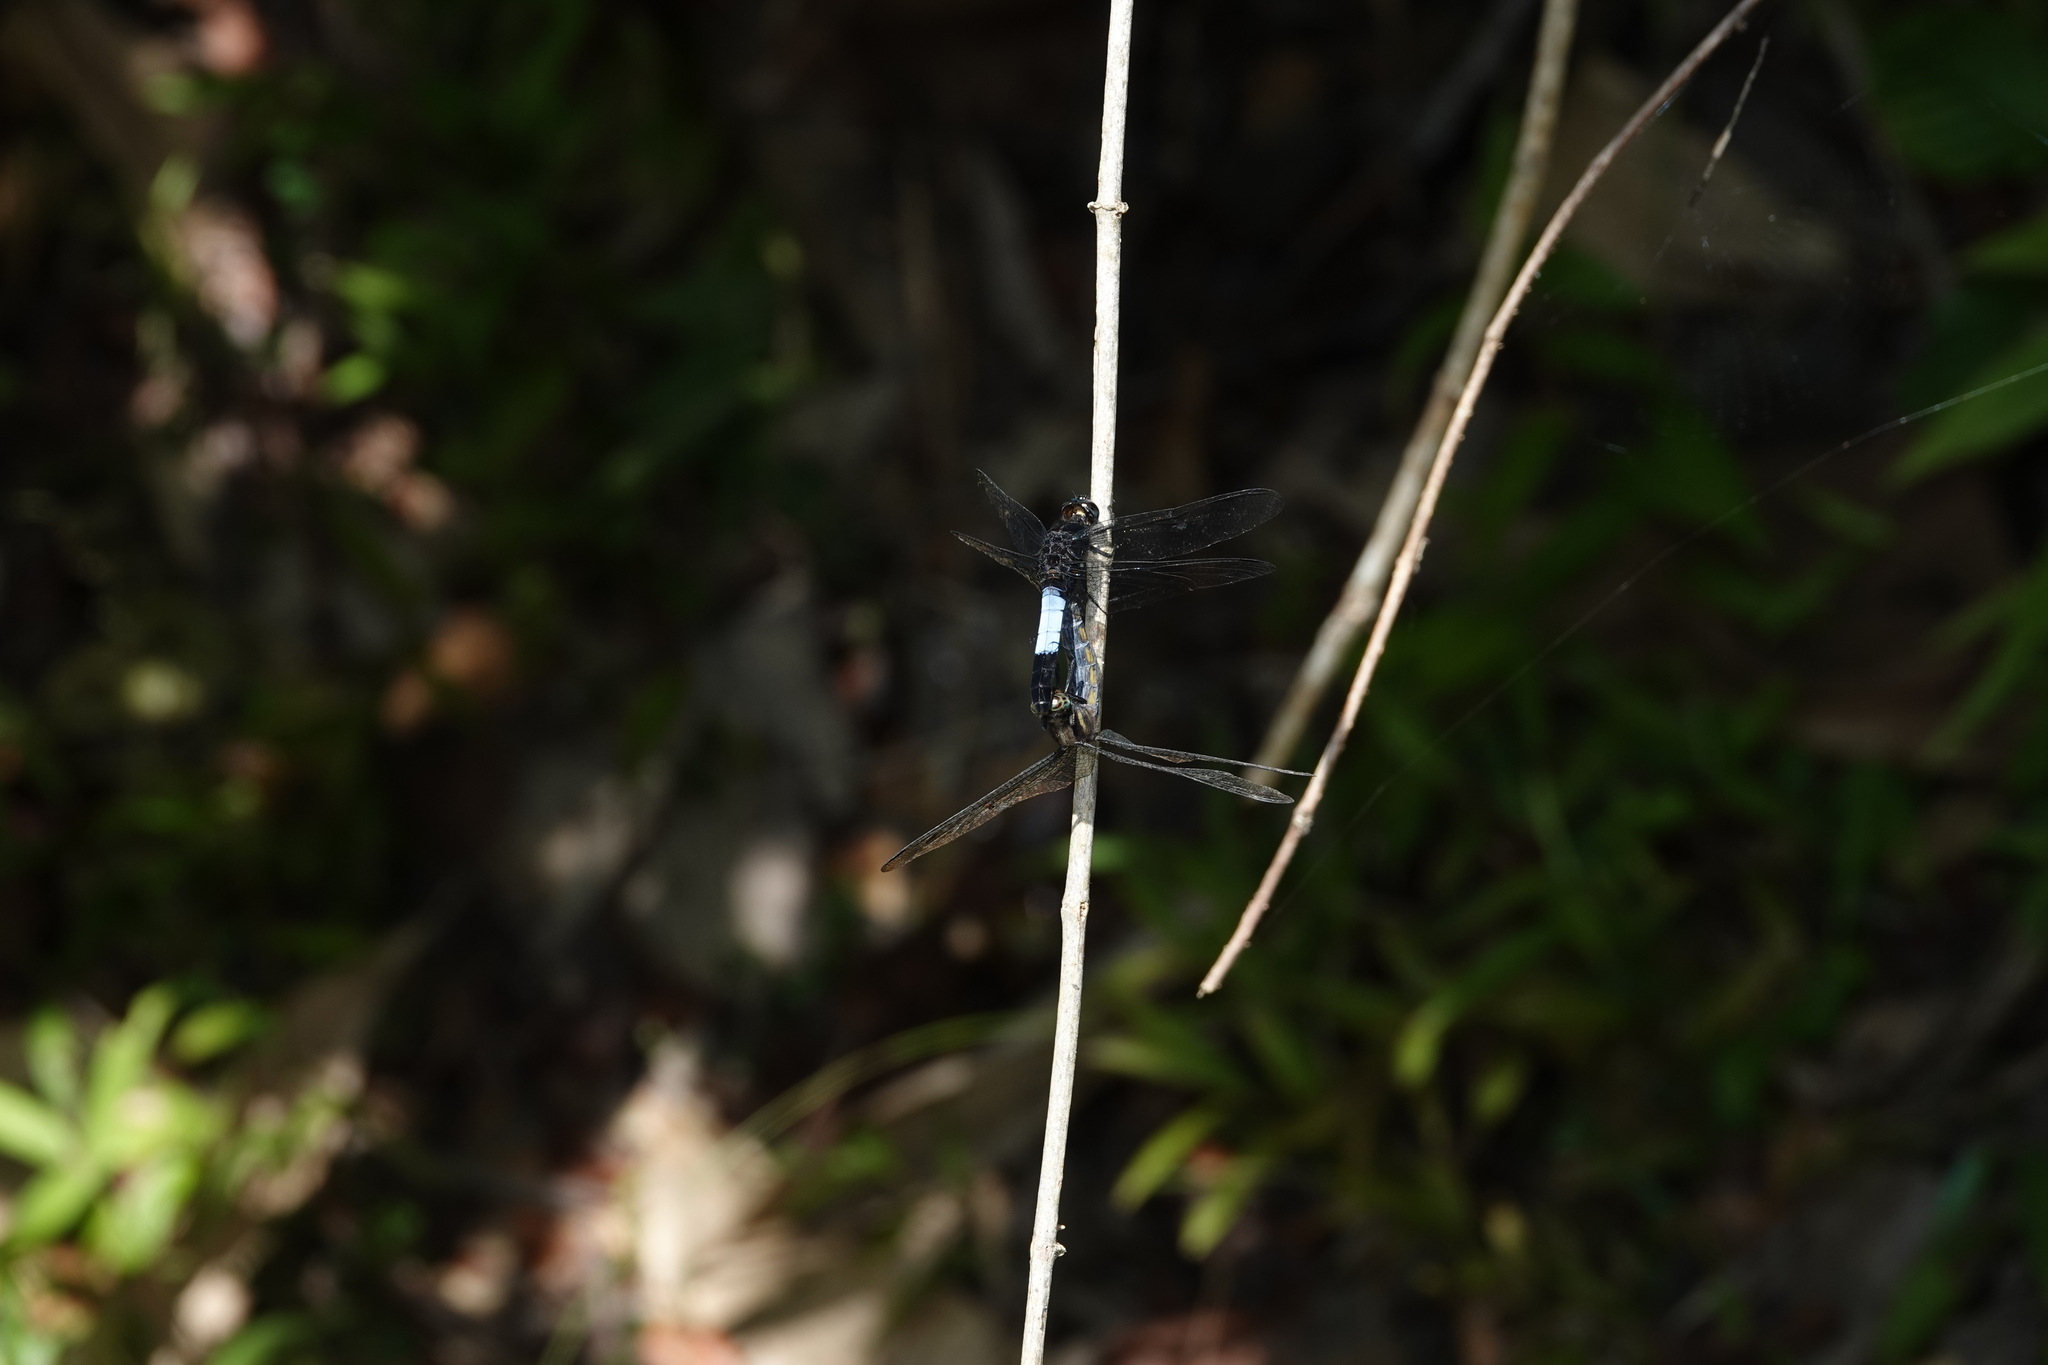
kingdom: Animalia
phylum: Arthropoda
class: Insecta
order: Odonata
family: Libellulidae
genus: Orthetrum
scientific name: Orthetrum triangulare
